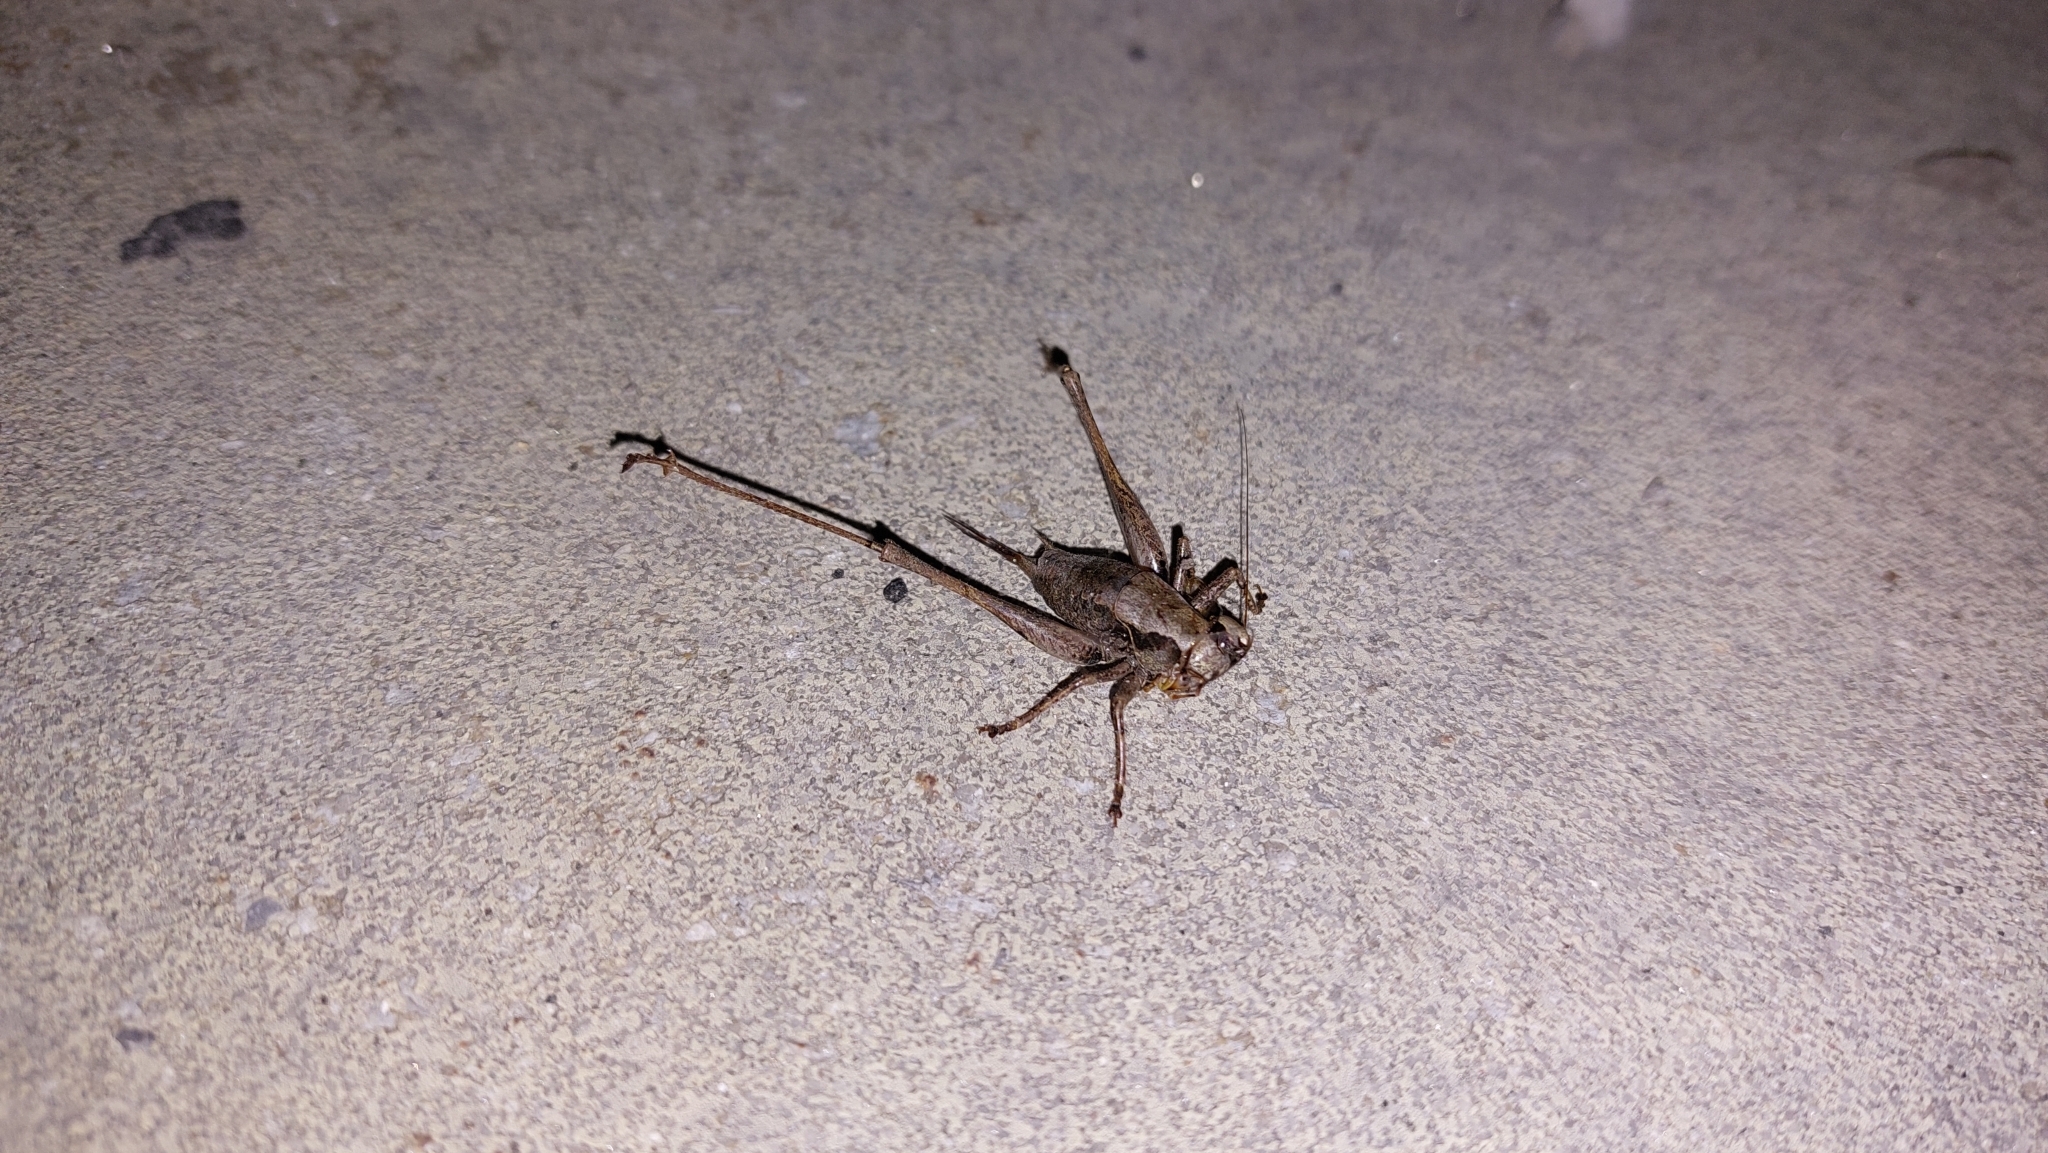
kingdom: Animalia
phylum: Arthropoda
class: Insecta
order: Orthoptera
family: Tettigoniidae
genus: Pholidoptera
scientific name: Pholidoptera griseoaptera
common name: Dark bush-cricket
